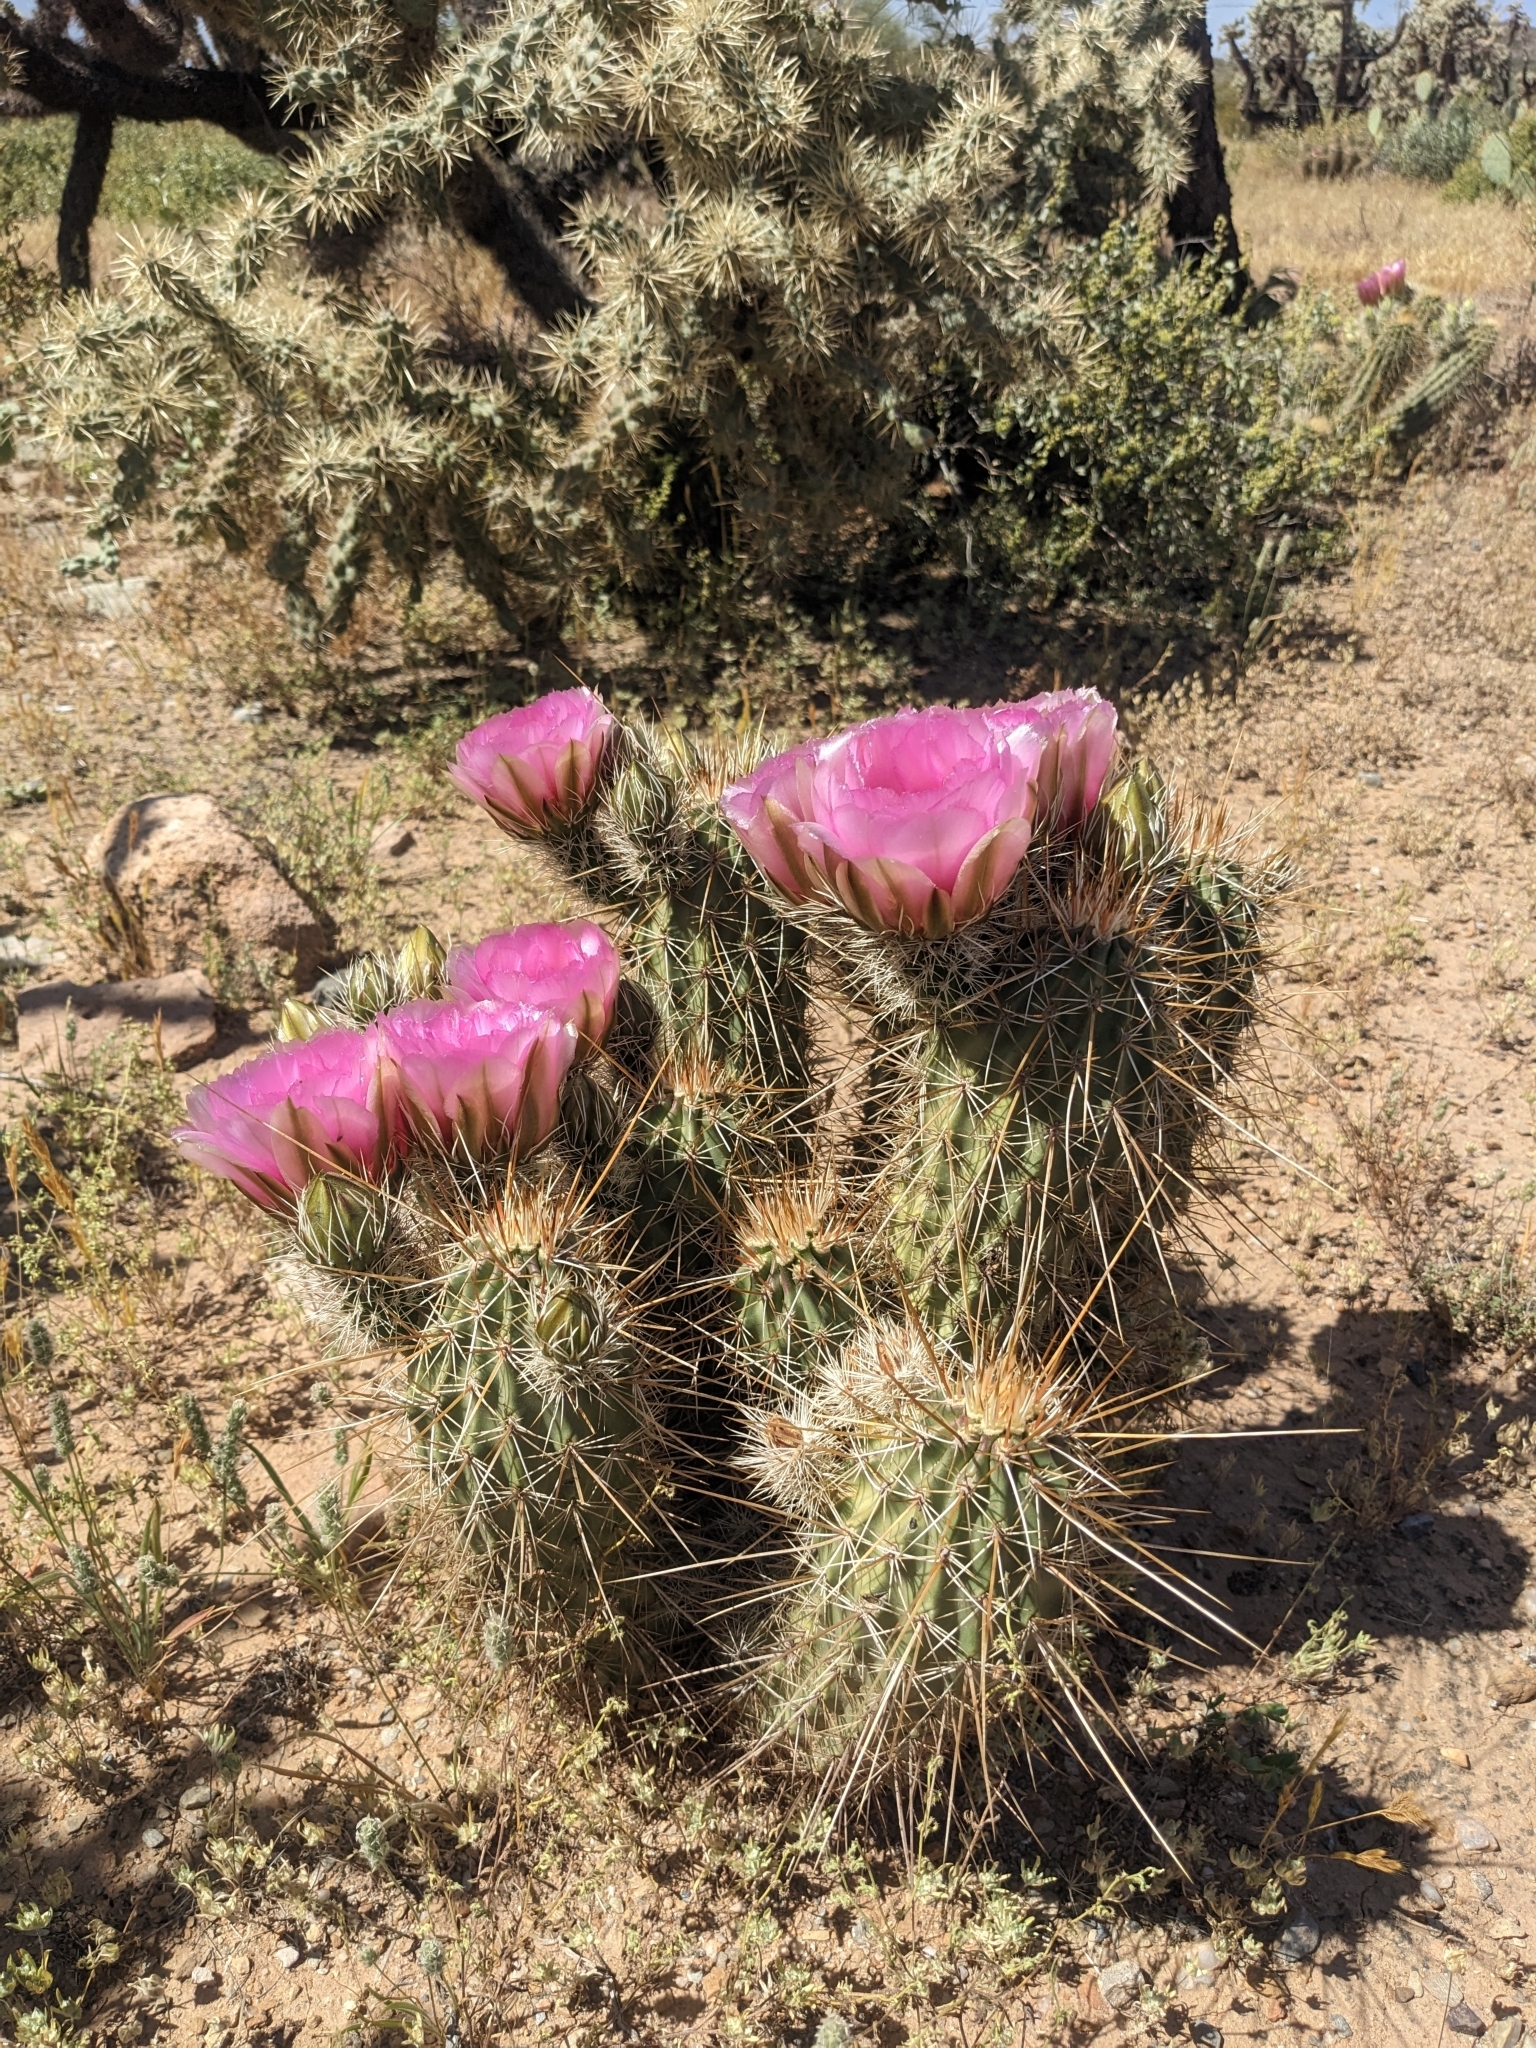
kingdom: Plantae
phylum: Tracheophyta
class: Magnoliopsida
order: Caryophyllales
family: Cactaceae
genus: Echinocereus
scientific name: Echinocereus engelmannii
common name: Engelmann's hedgehog cactus
